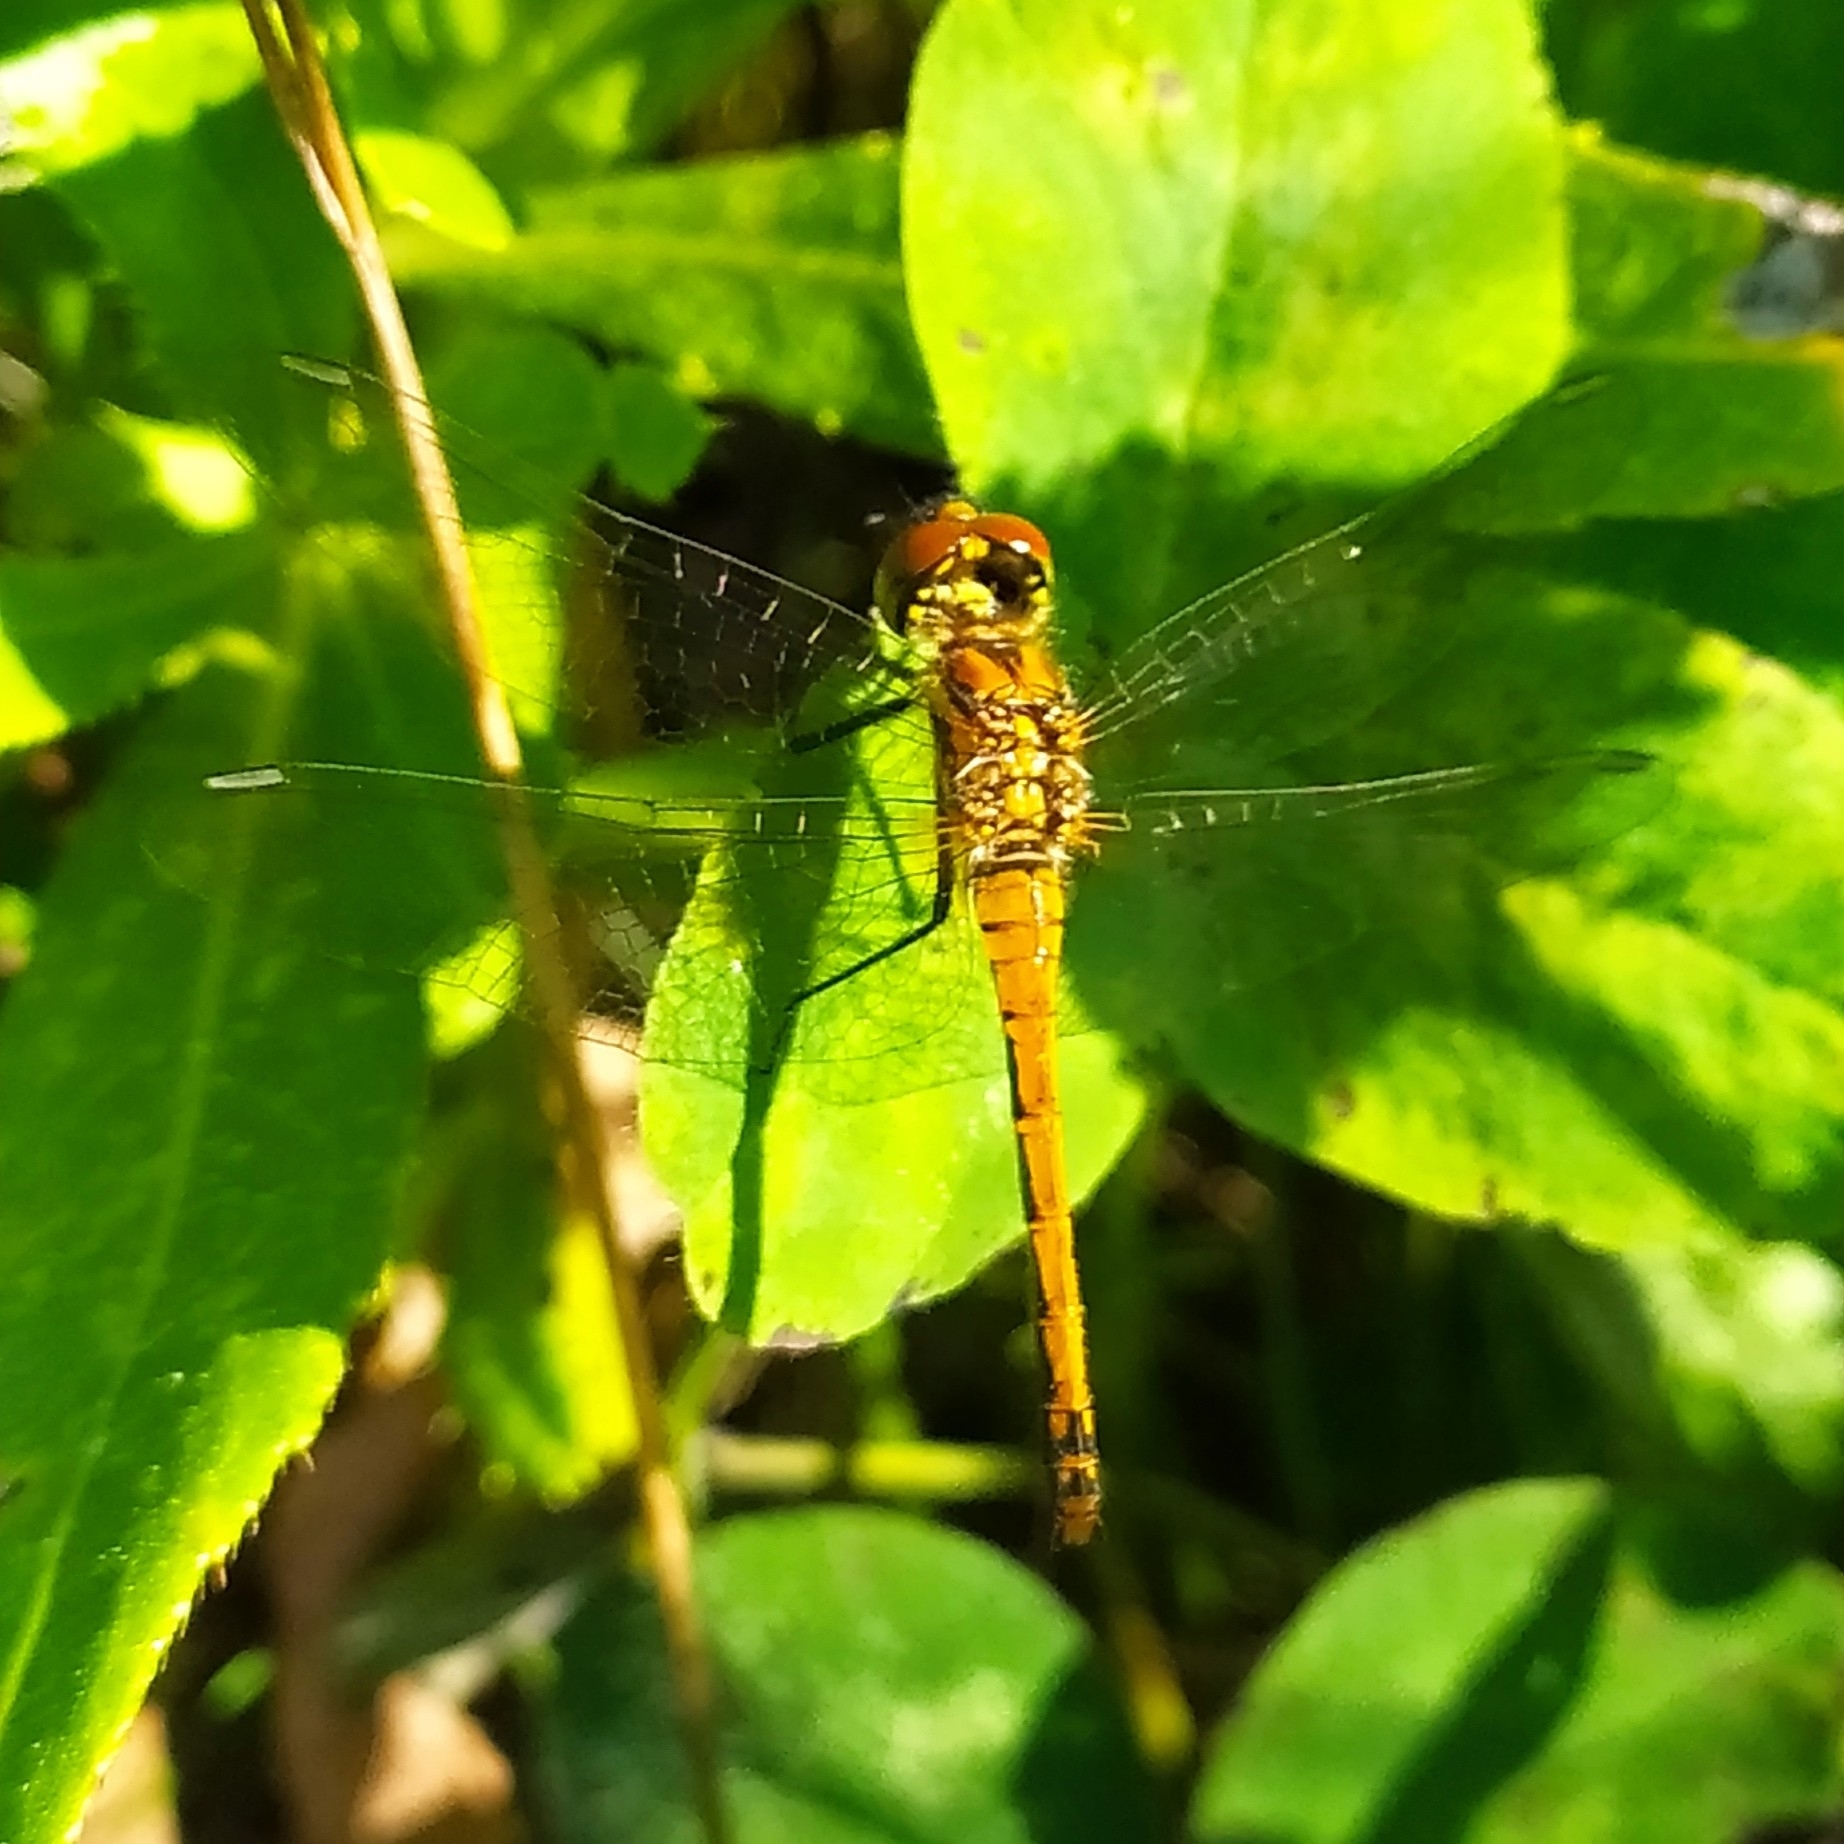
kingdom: Animalia
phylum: Arthropoda
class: Insecta
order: Odonata
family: Libellulidae
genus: Sympetrum
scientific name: Sympetrum danae
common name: Black darter
